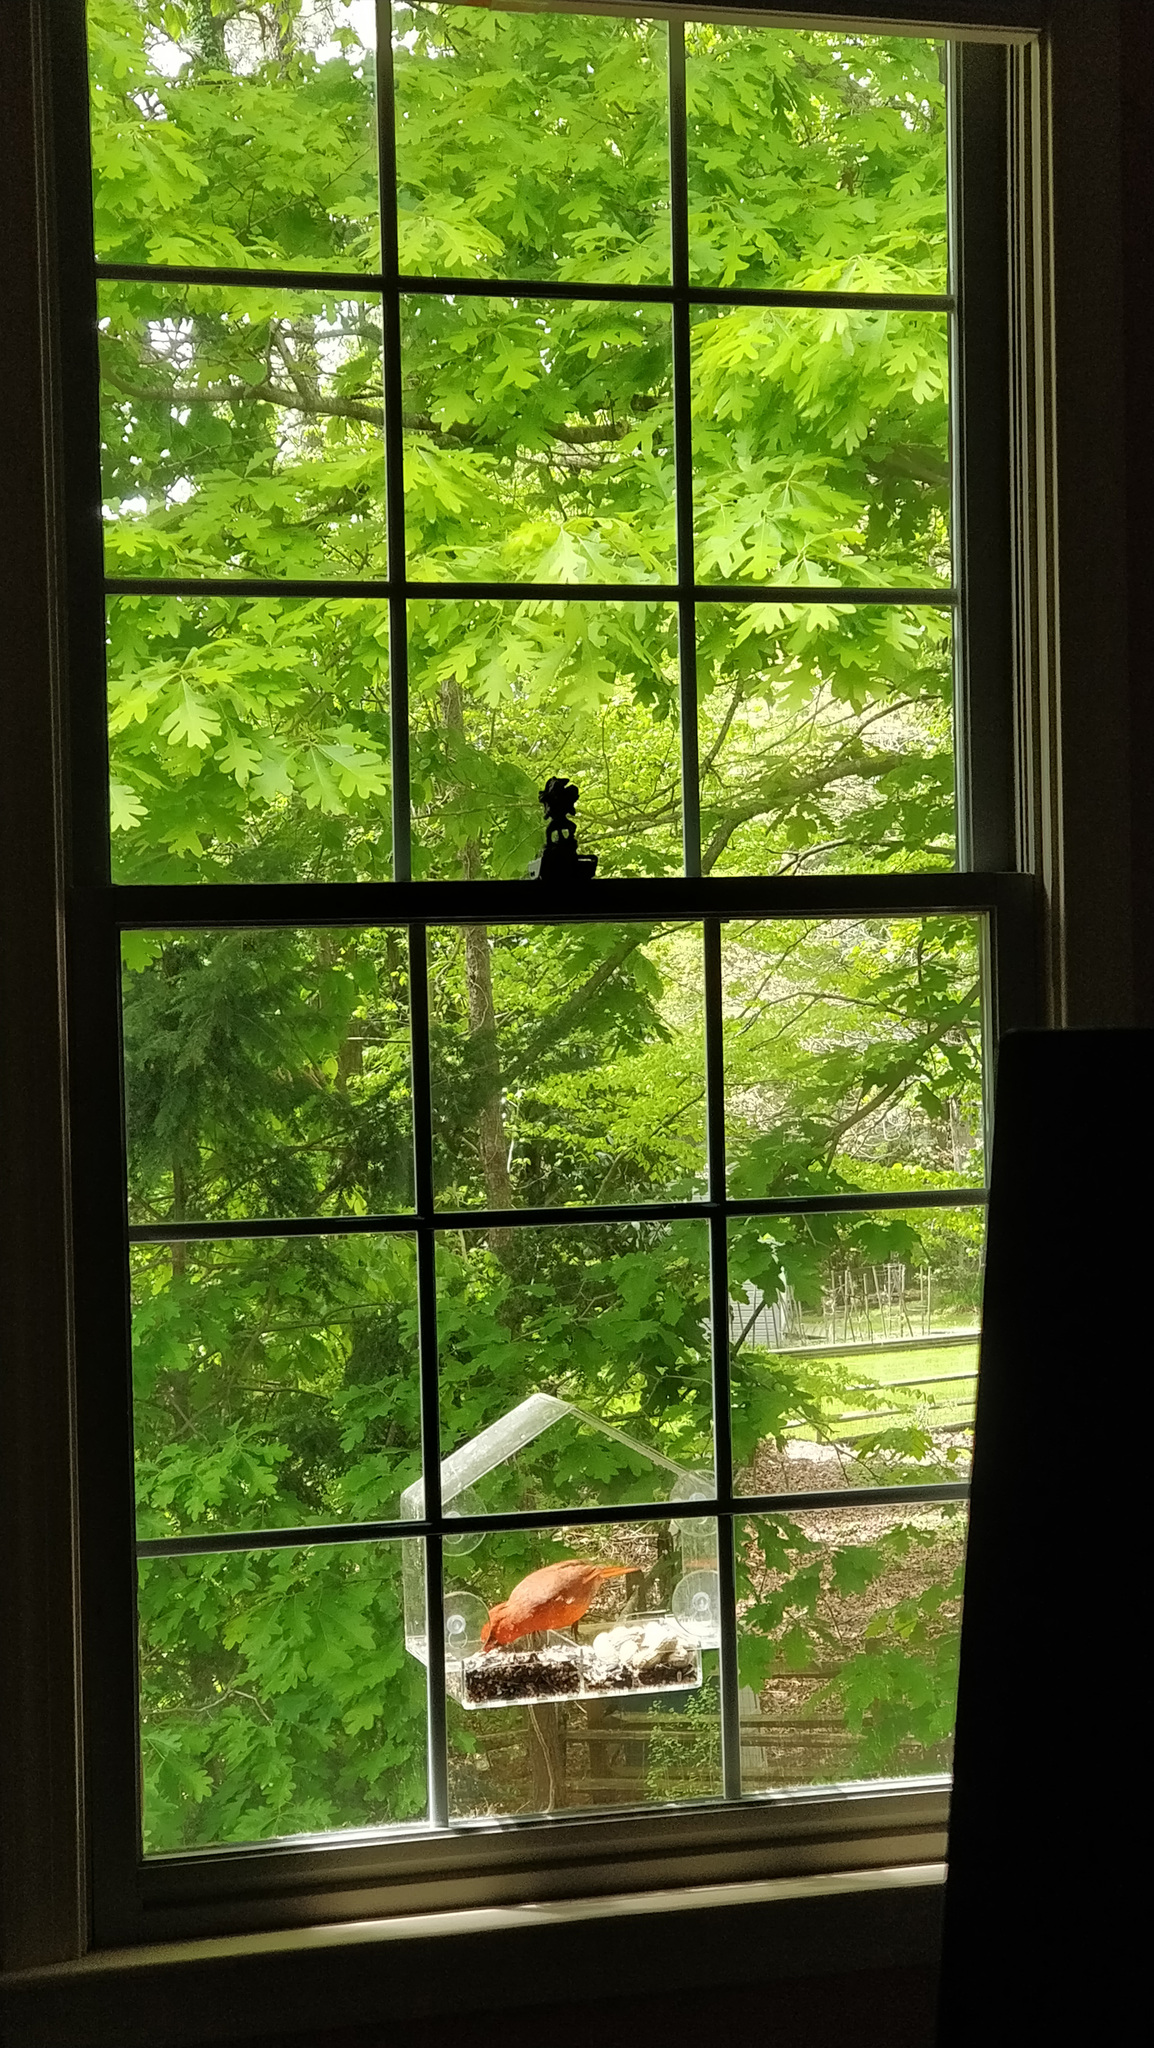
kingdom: Animalia
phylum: Chordata
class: Aves
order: Passeriformes
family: Cardinalidae
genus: Cardinalis
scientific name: Cardinalis cardinalis
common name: Northern cardinal
